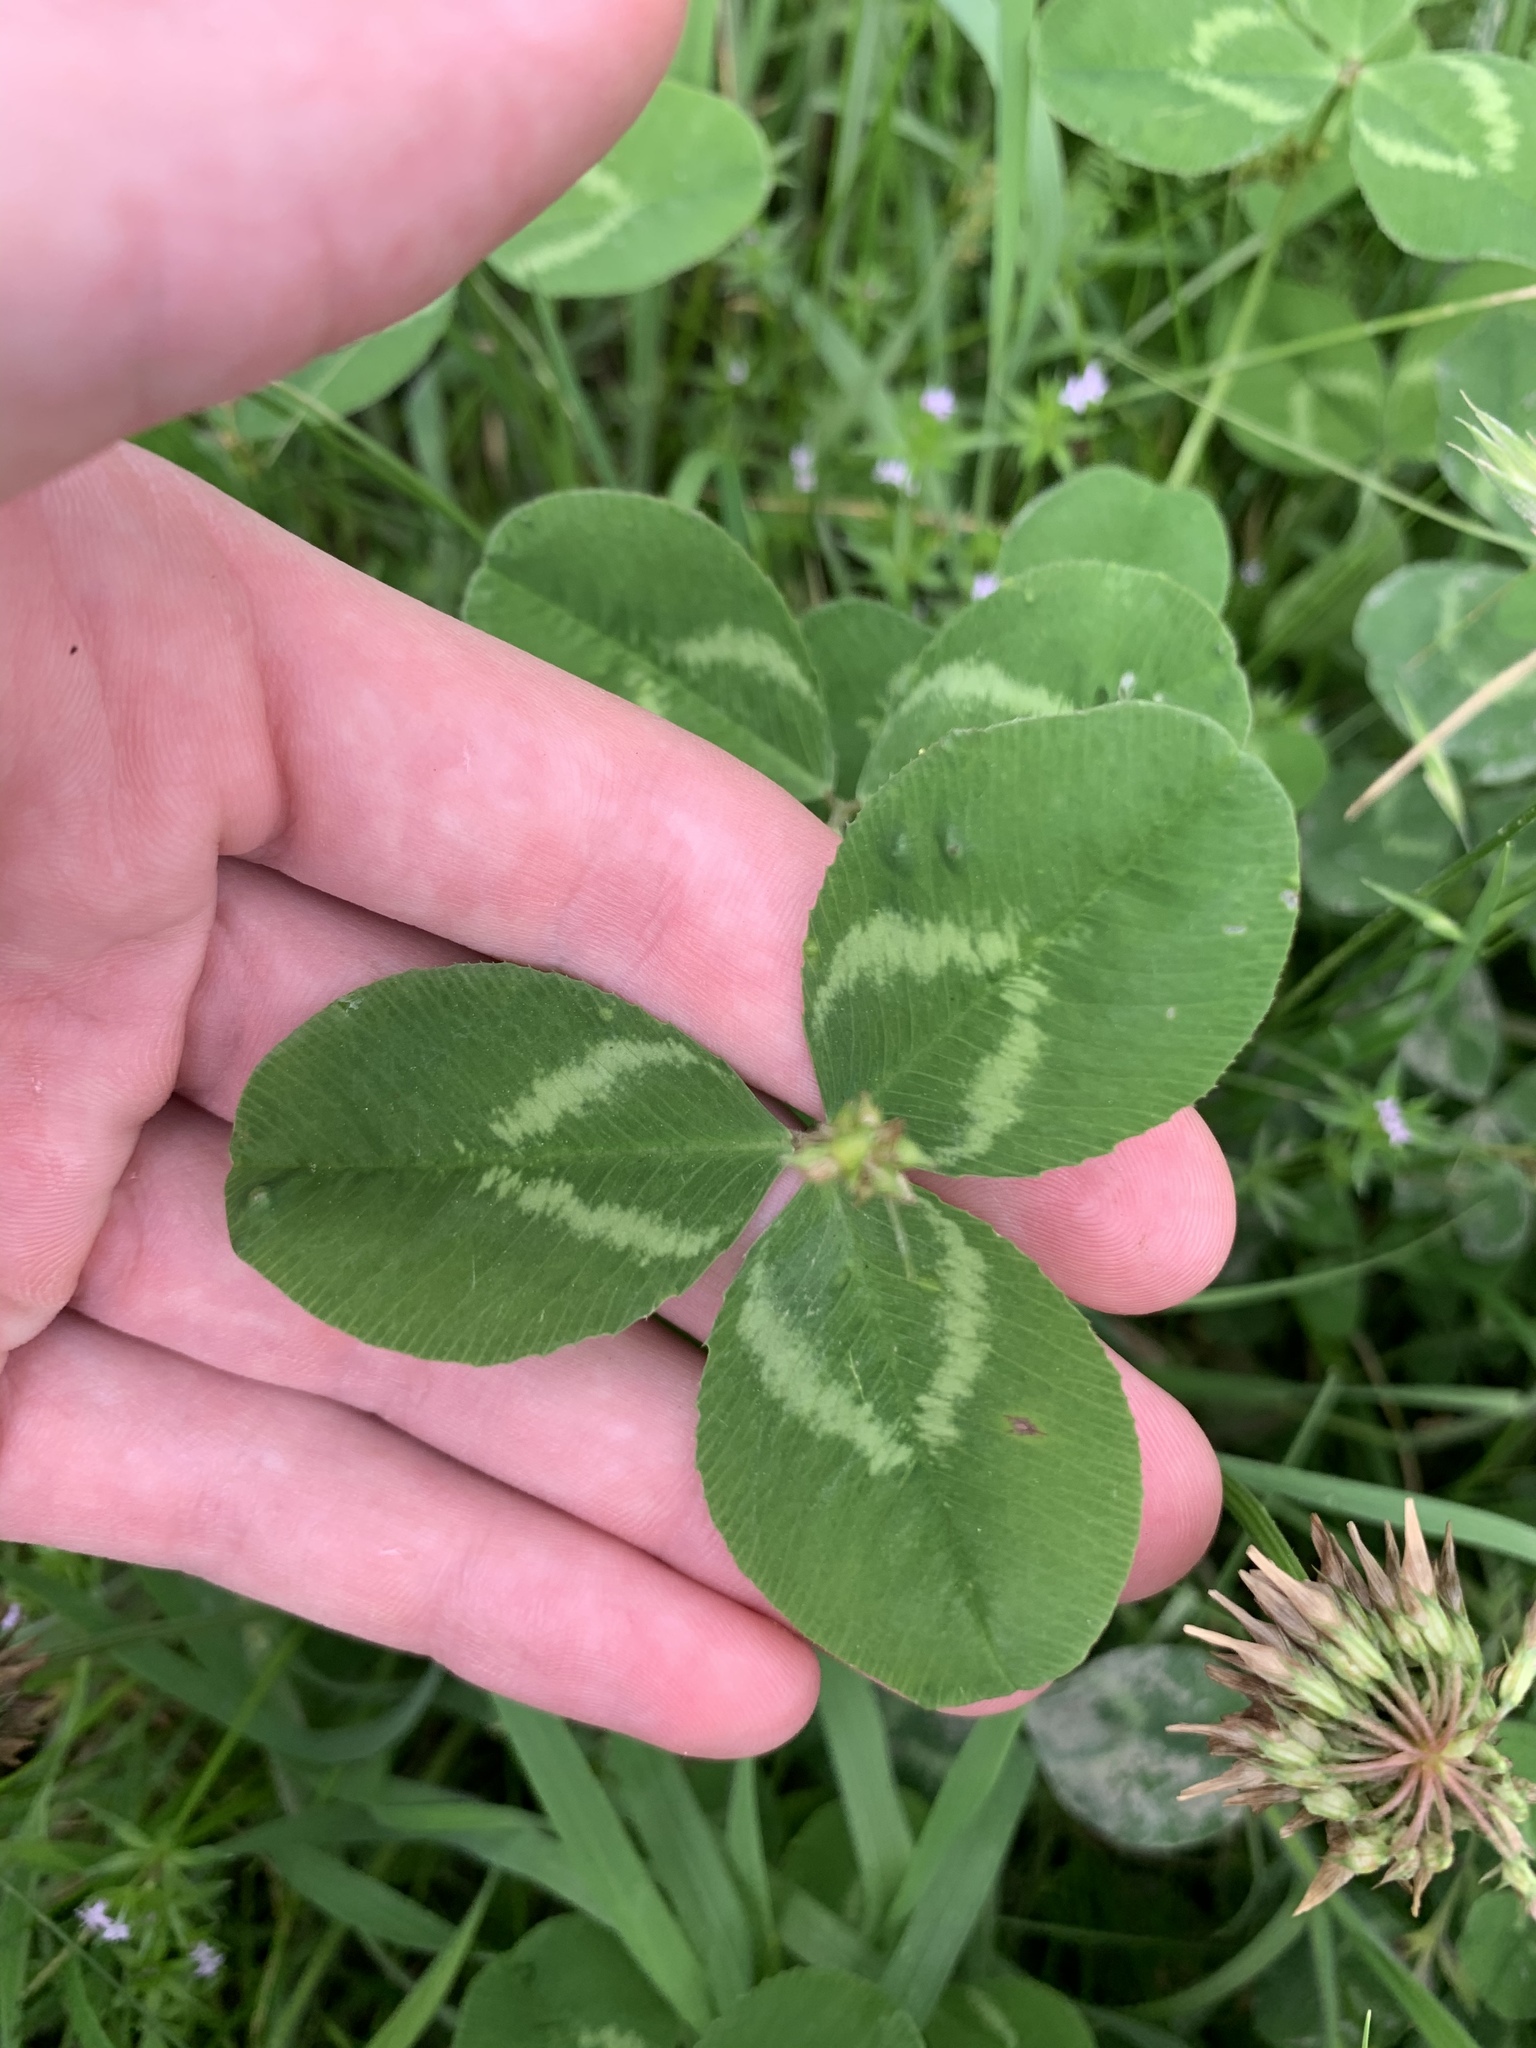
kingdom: Plantae
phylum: Tracheophyta
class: Magnoliopsida
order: Fabales
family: Fabaceae
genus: Trifolium
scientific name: Trifolium repens
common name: White clover
